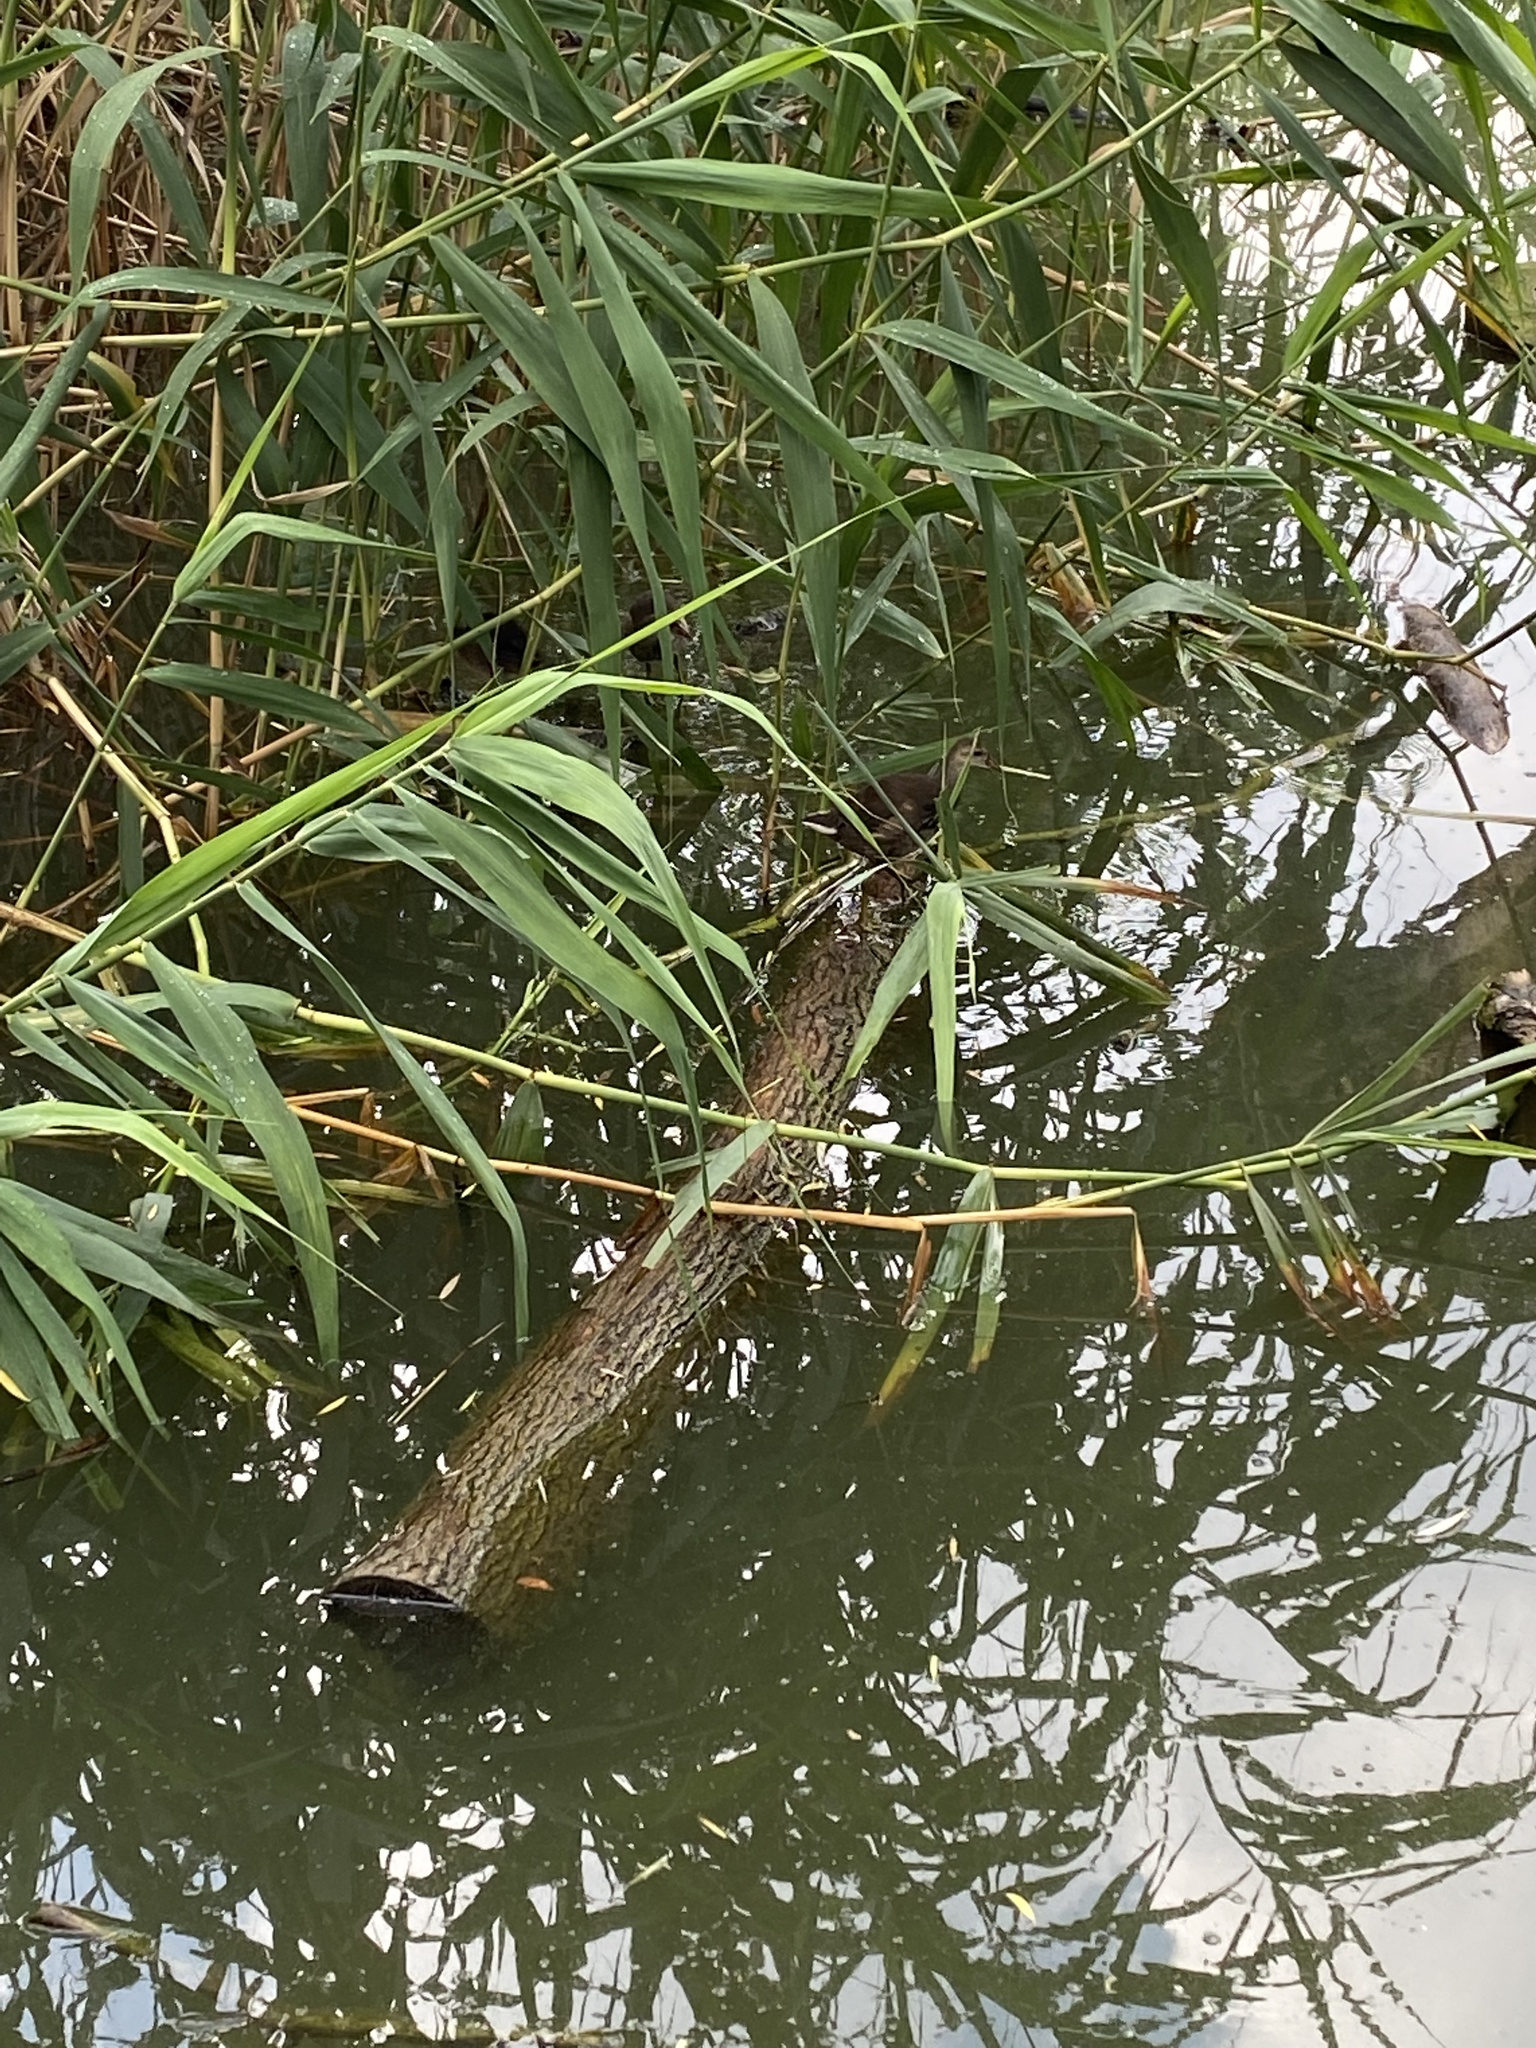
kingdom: Animalia
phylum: Chordata
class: Aves
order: Gruiformes
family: Rallidae
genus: Gallinula
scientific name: Gallinula chloropus
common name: Common moorhen
